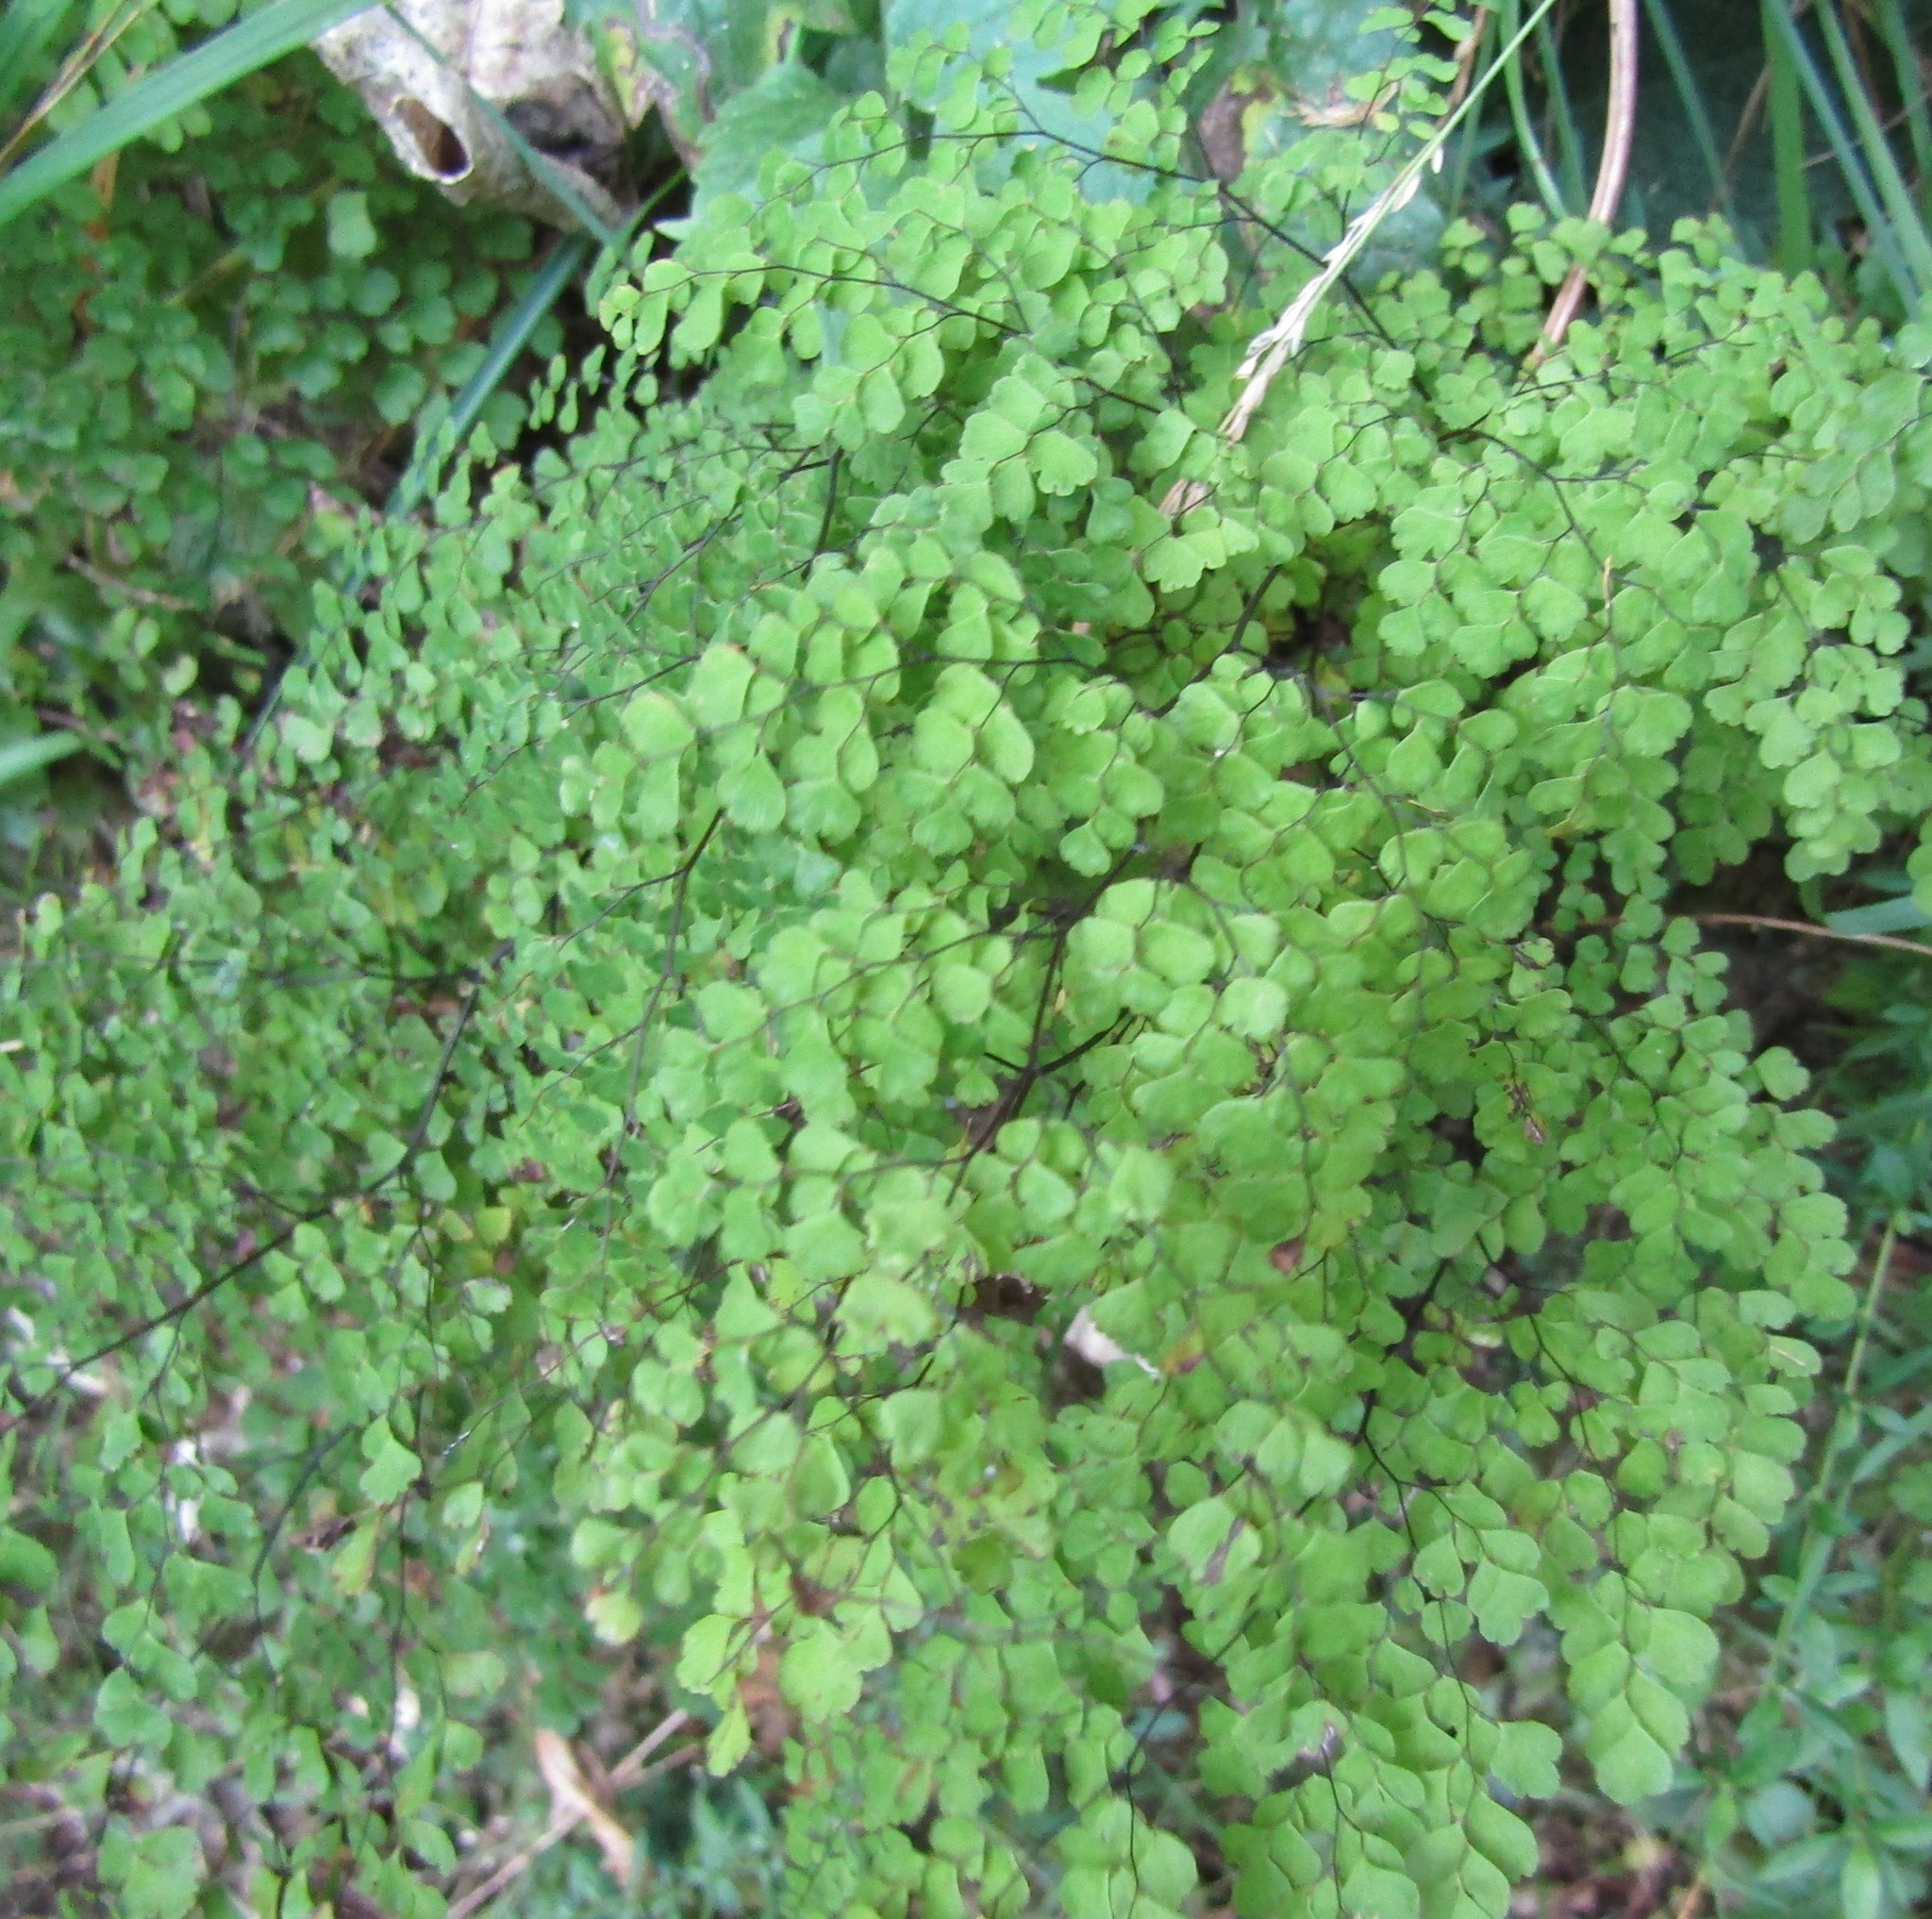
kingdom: Plantae
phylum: Tracheophyta
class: Polypodiopsida
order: Polypodiales
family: Pteridaceae
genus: Adiantum
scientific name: Adiantum raddianum
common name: Delta maidenhair fern
